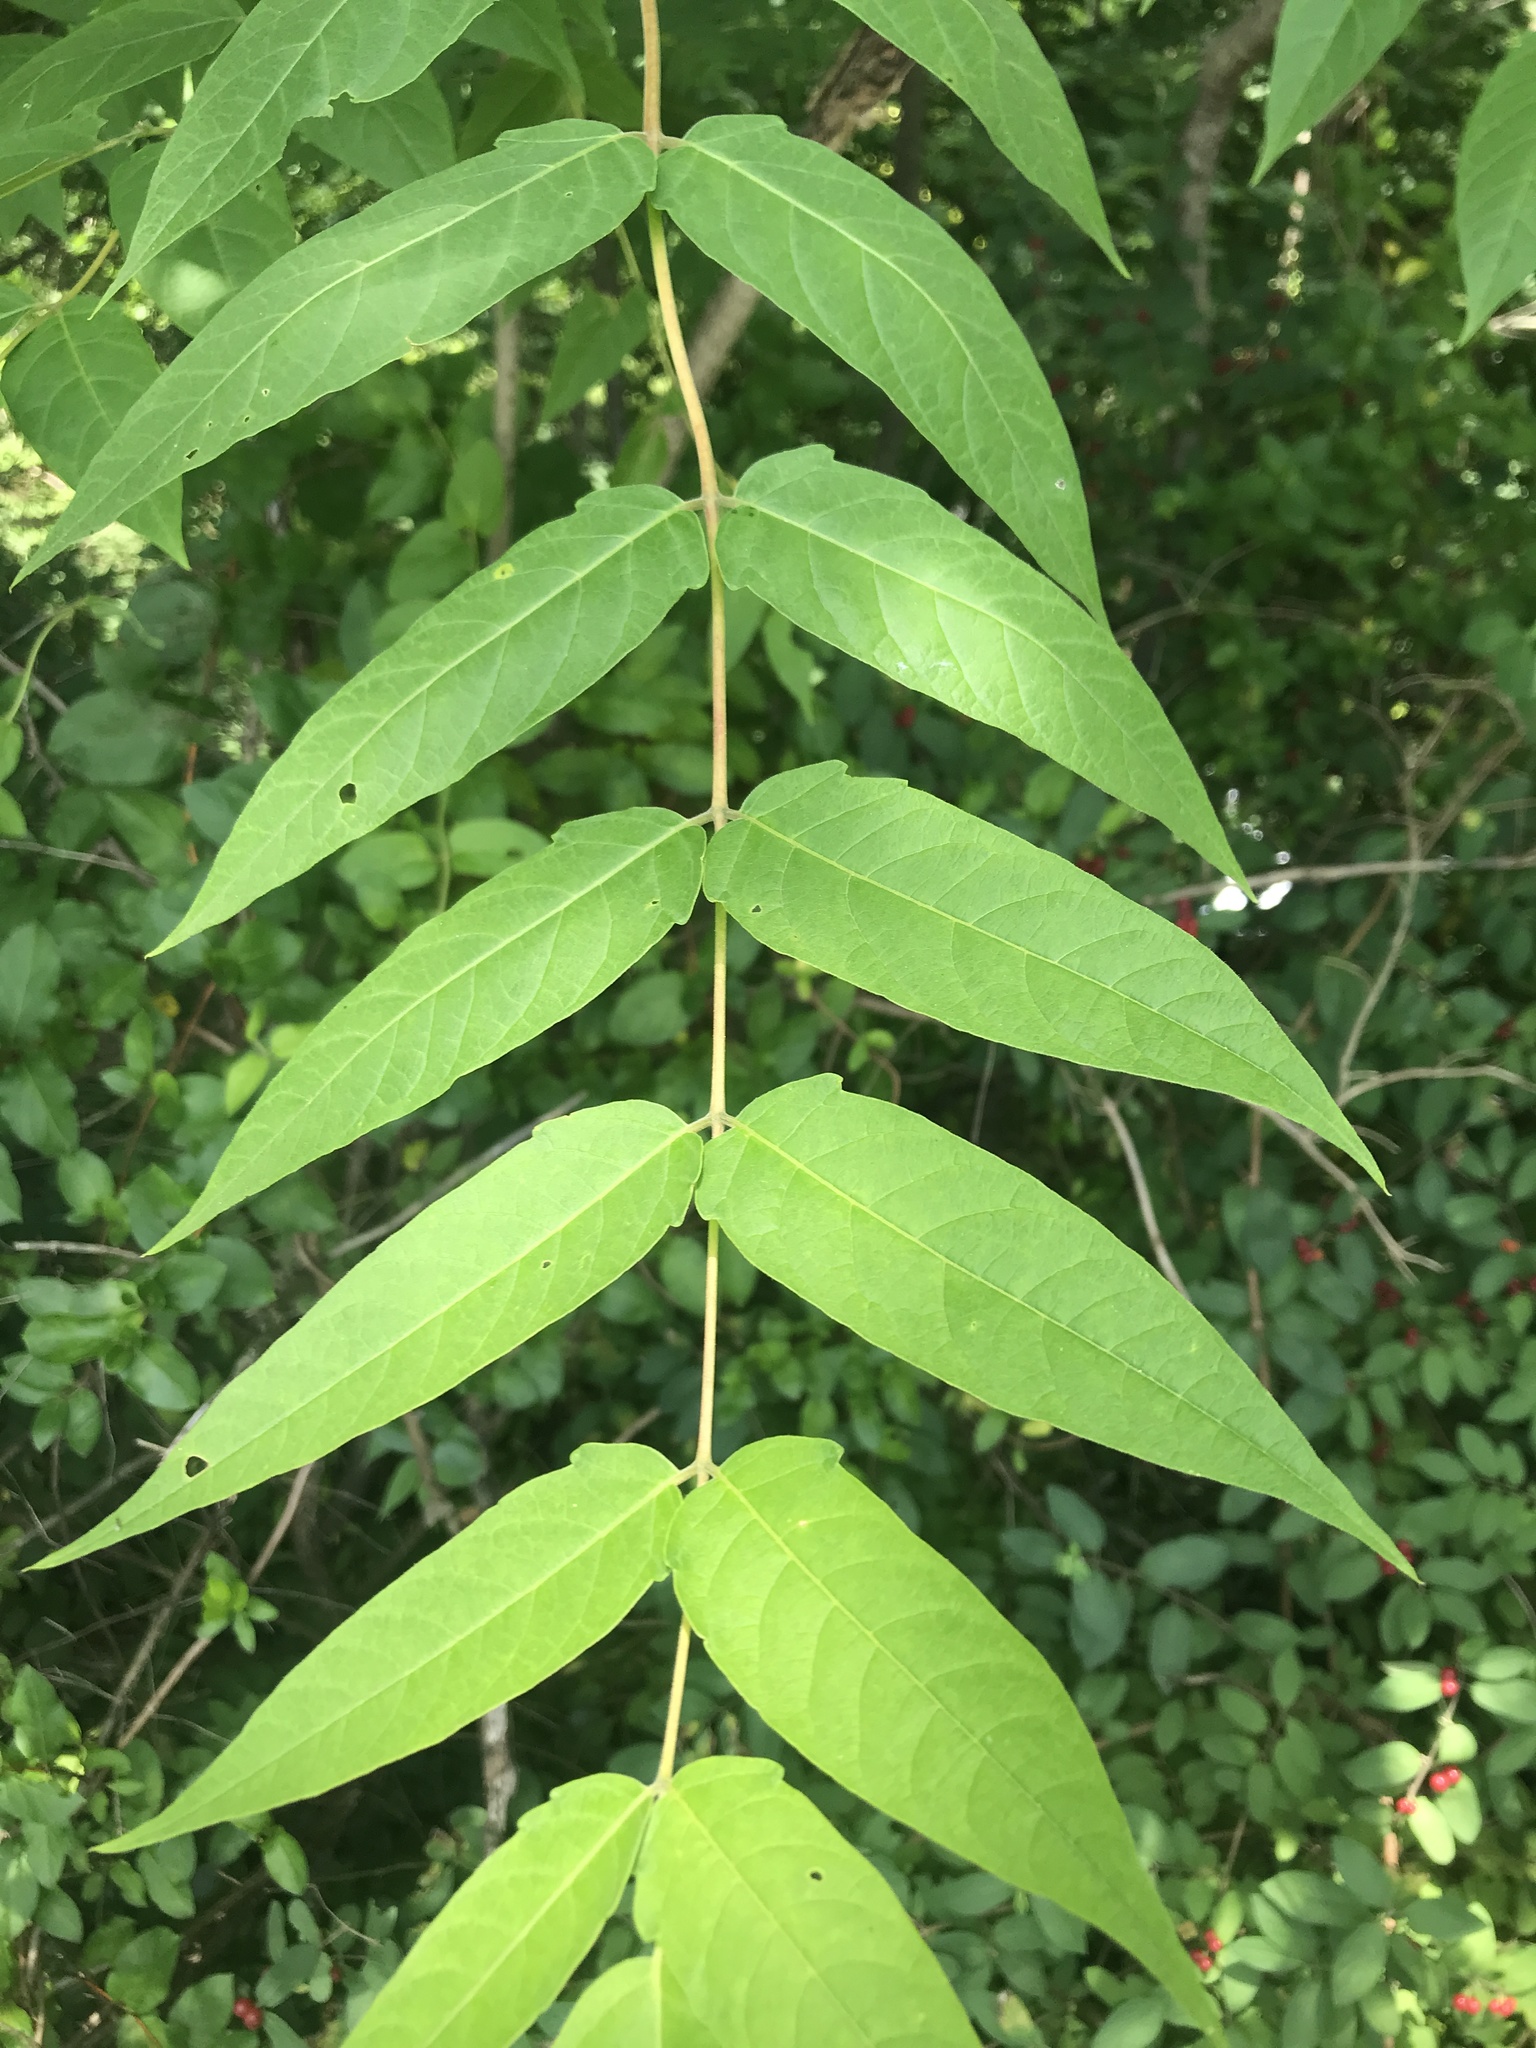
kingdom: Plantae
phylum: Tracheophyta
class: Magnoliopsida
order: Sapindales
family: Simaroubaceae
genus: Ailanthus
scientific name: Ailanthus altissima
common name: Tree-of-heaven
